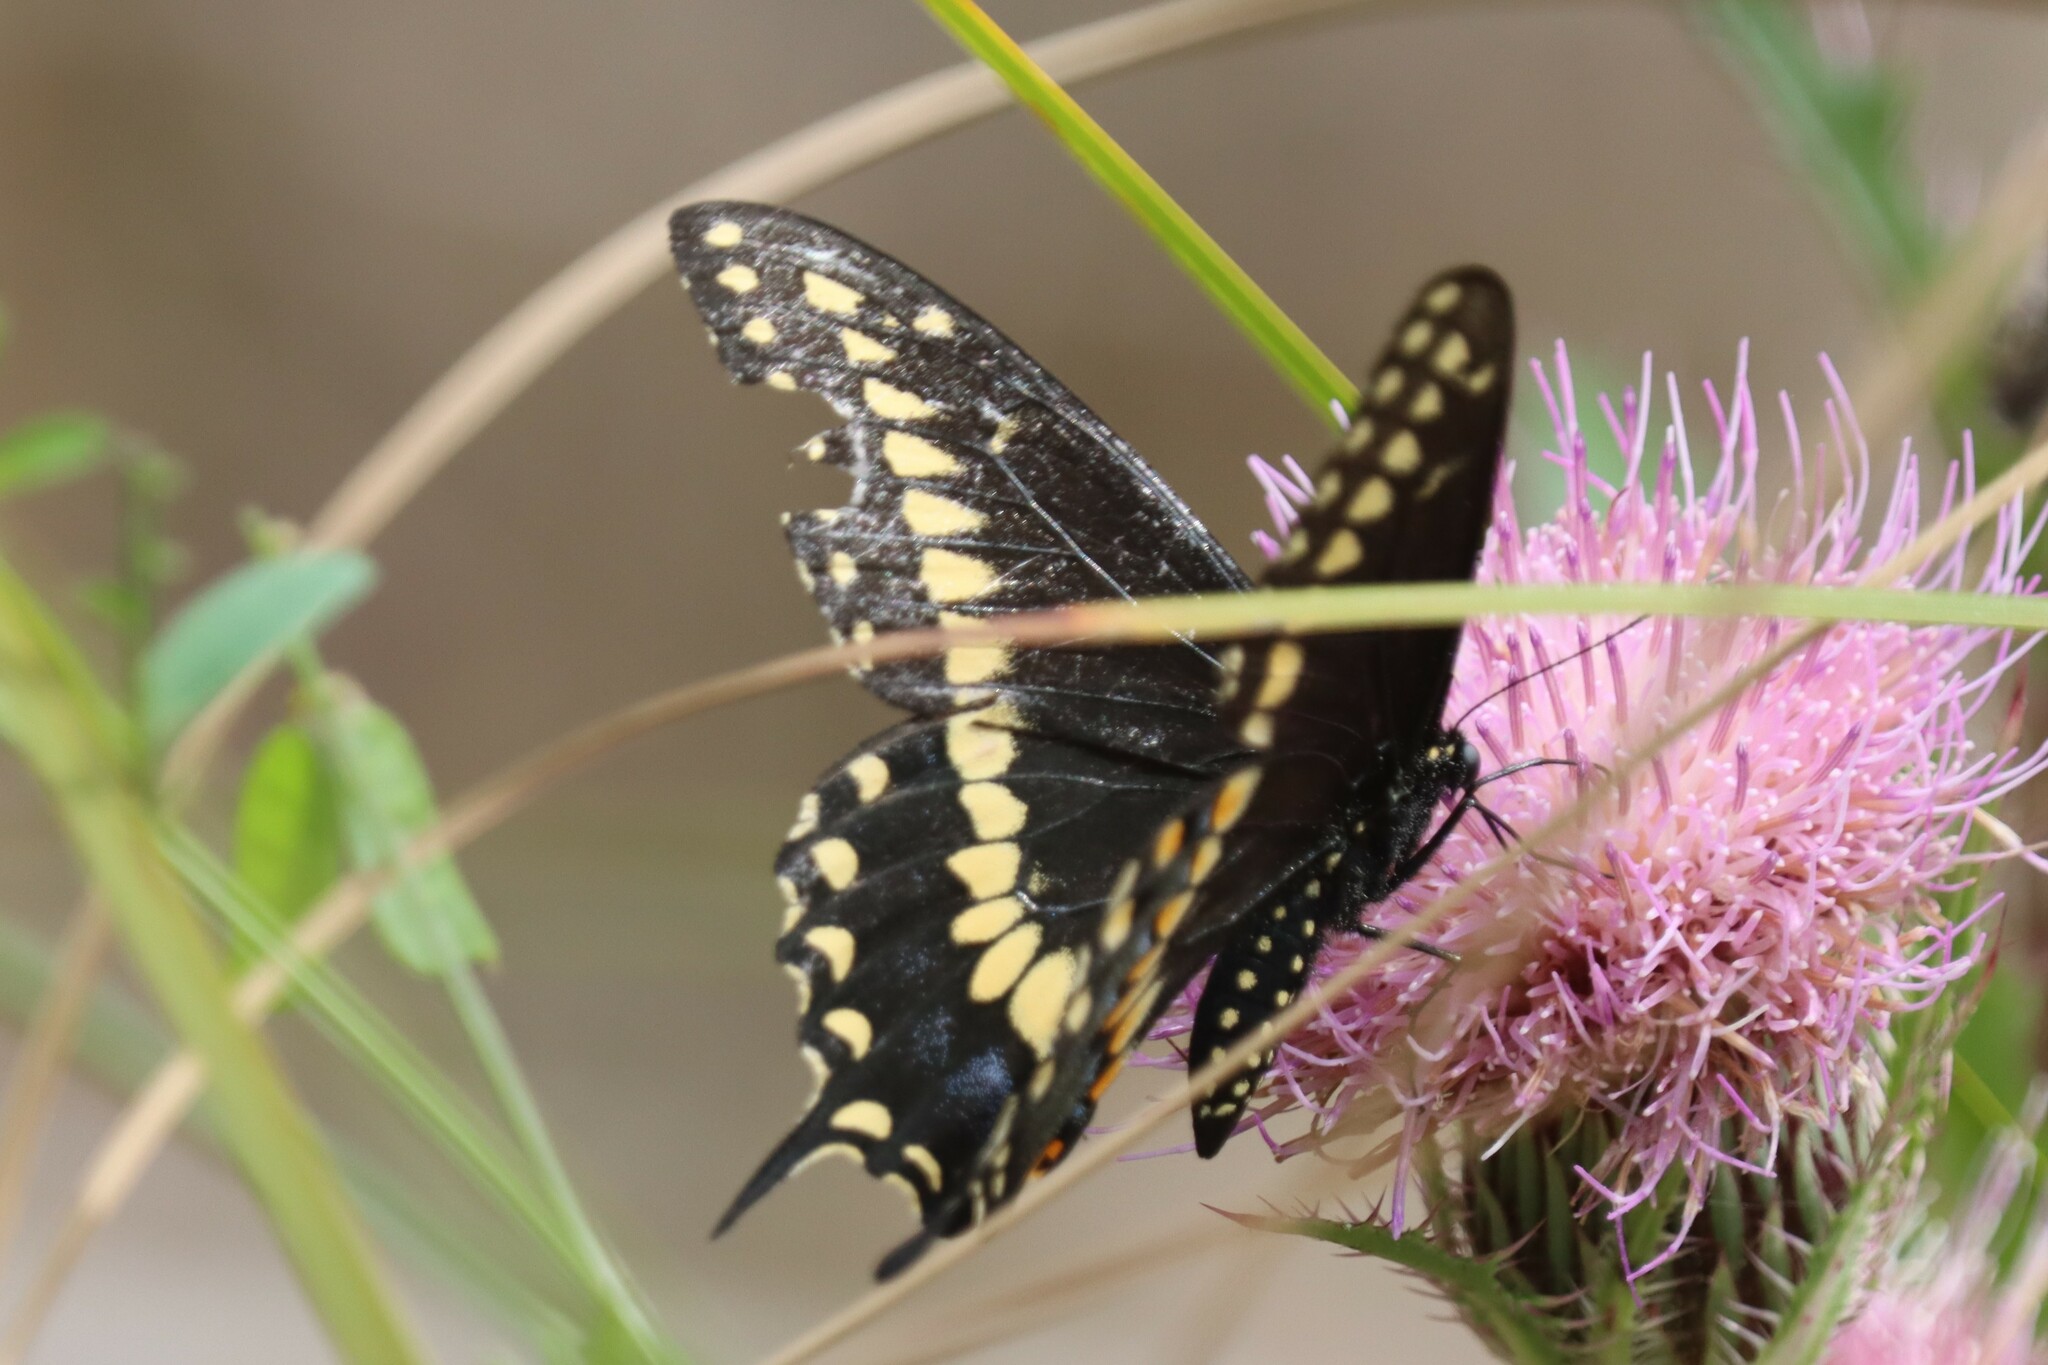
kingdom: Animalia
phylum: Arthropoda
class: Insecta
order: Lepidoptera
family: Papilionidae
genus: Papilio
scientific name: Papilio polyxenes
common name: Black swallowtail
